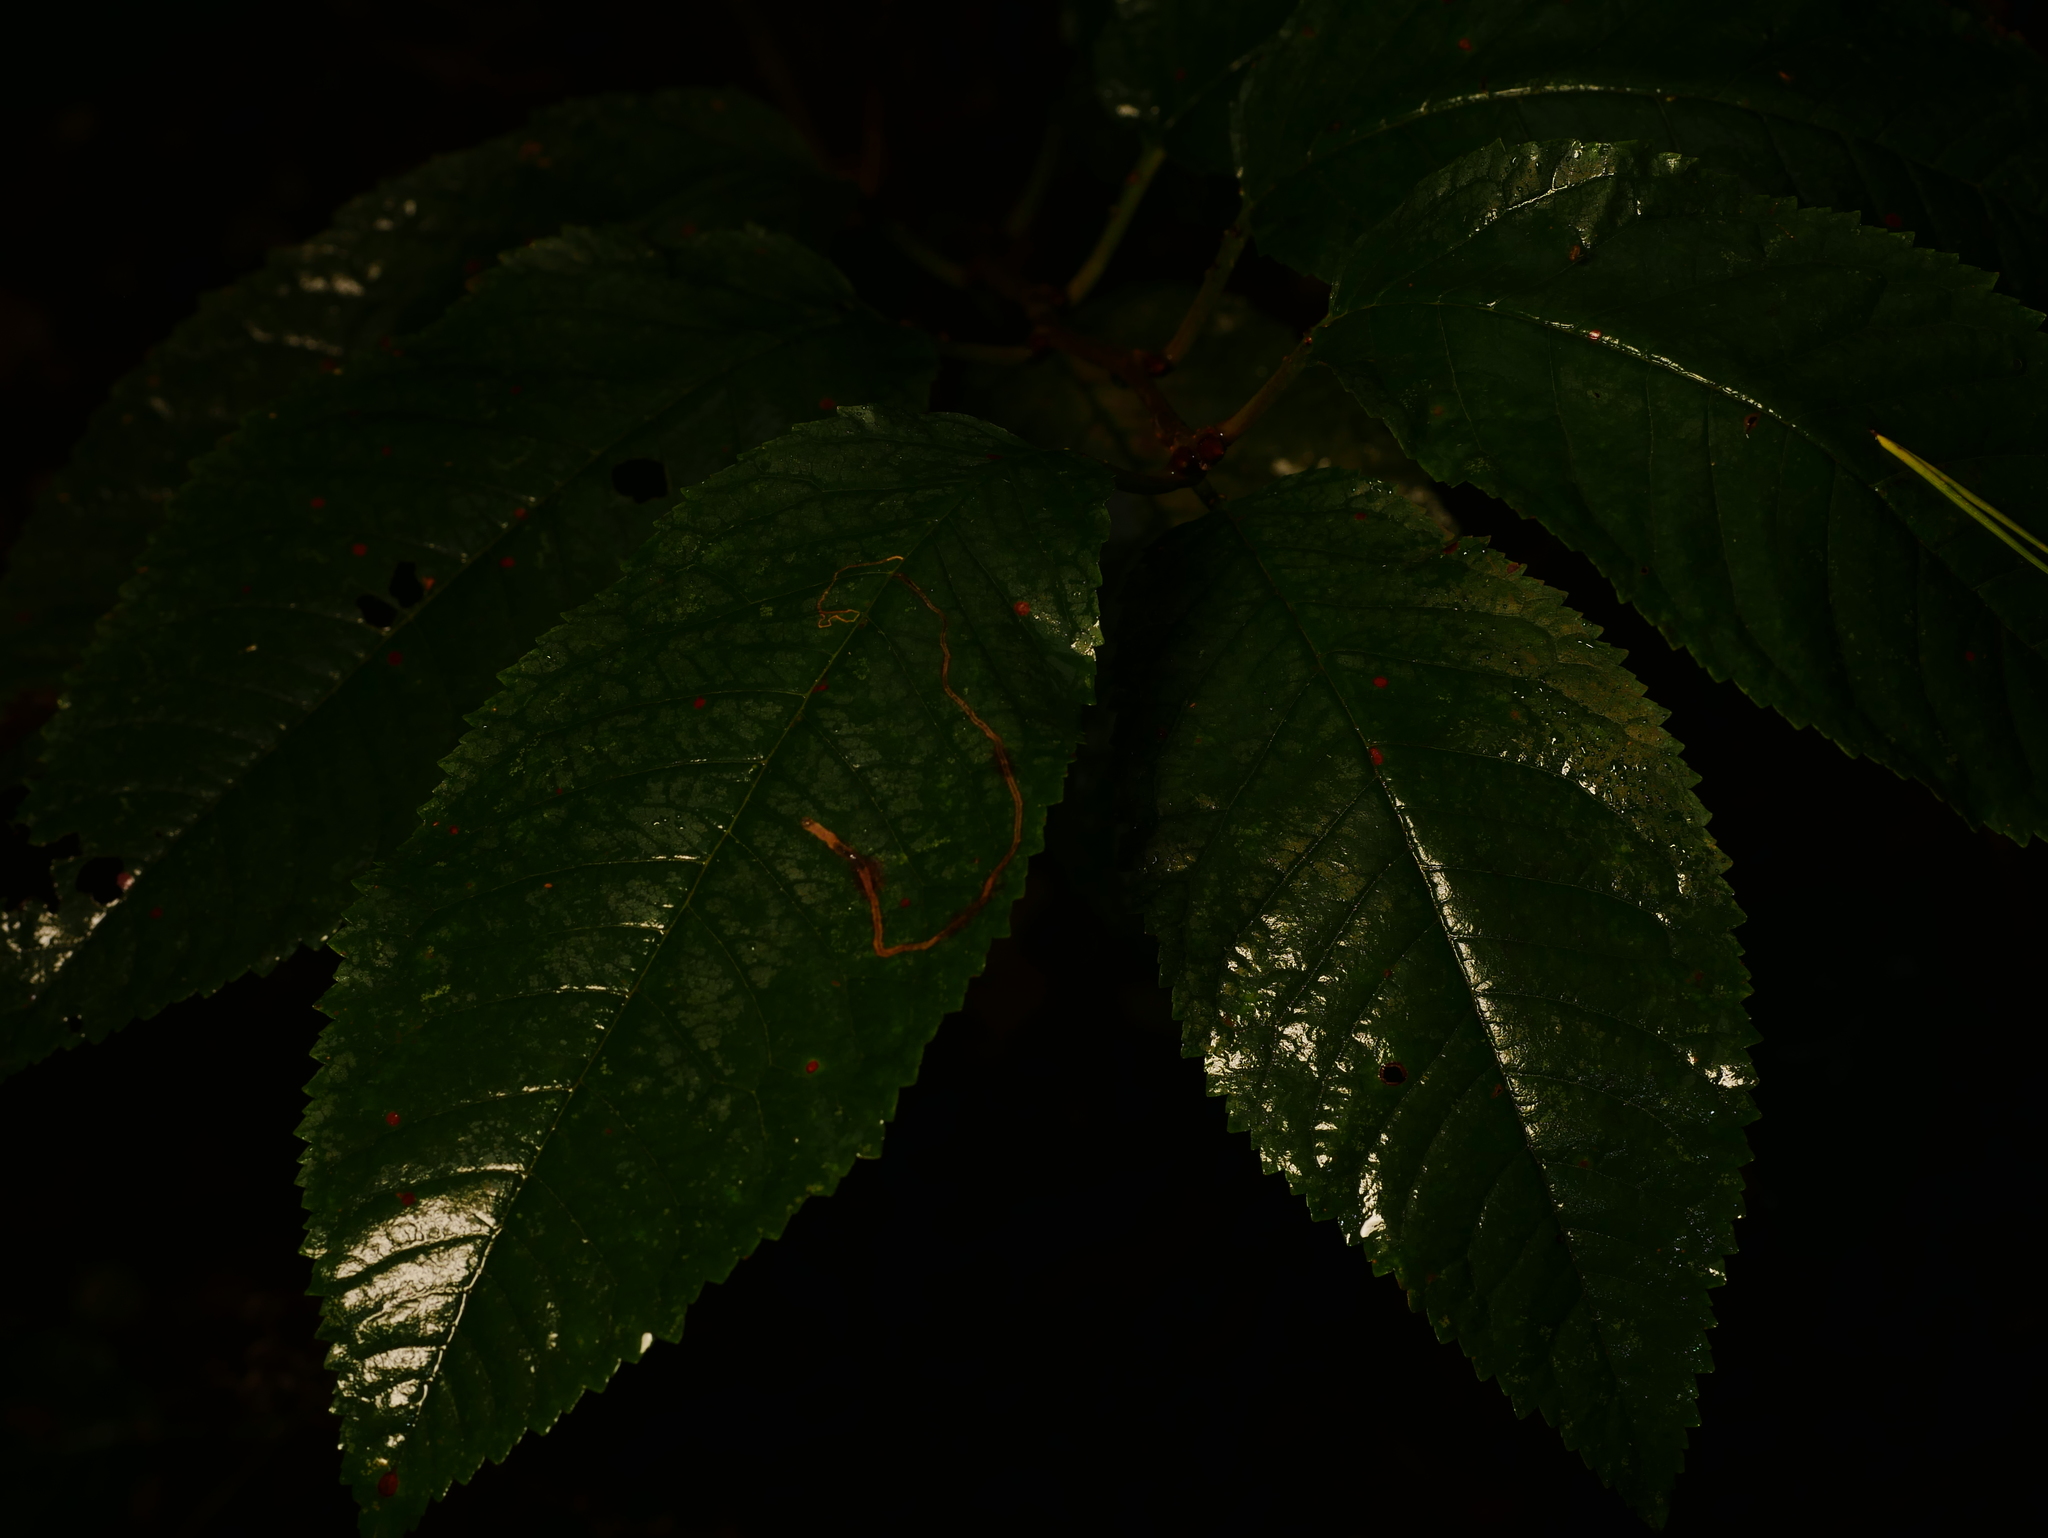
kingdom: Plantae
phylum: Tracheophyta
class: Magnoliopsida
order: Rosales
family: Rosaceae
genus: Prunus
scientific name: Prunus avium
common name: Sweet cherry
